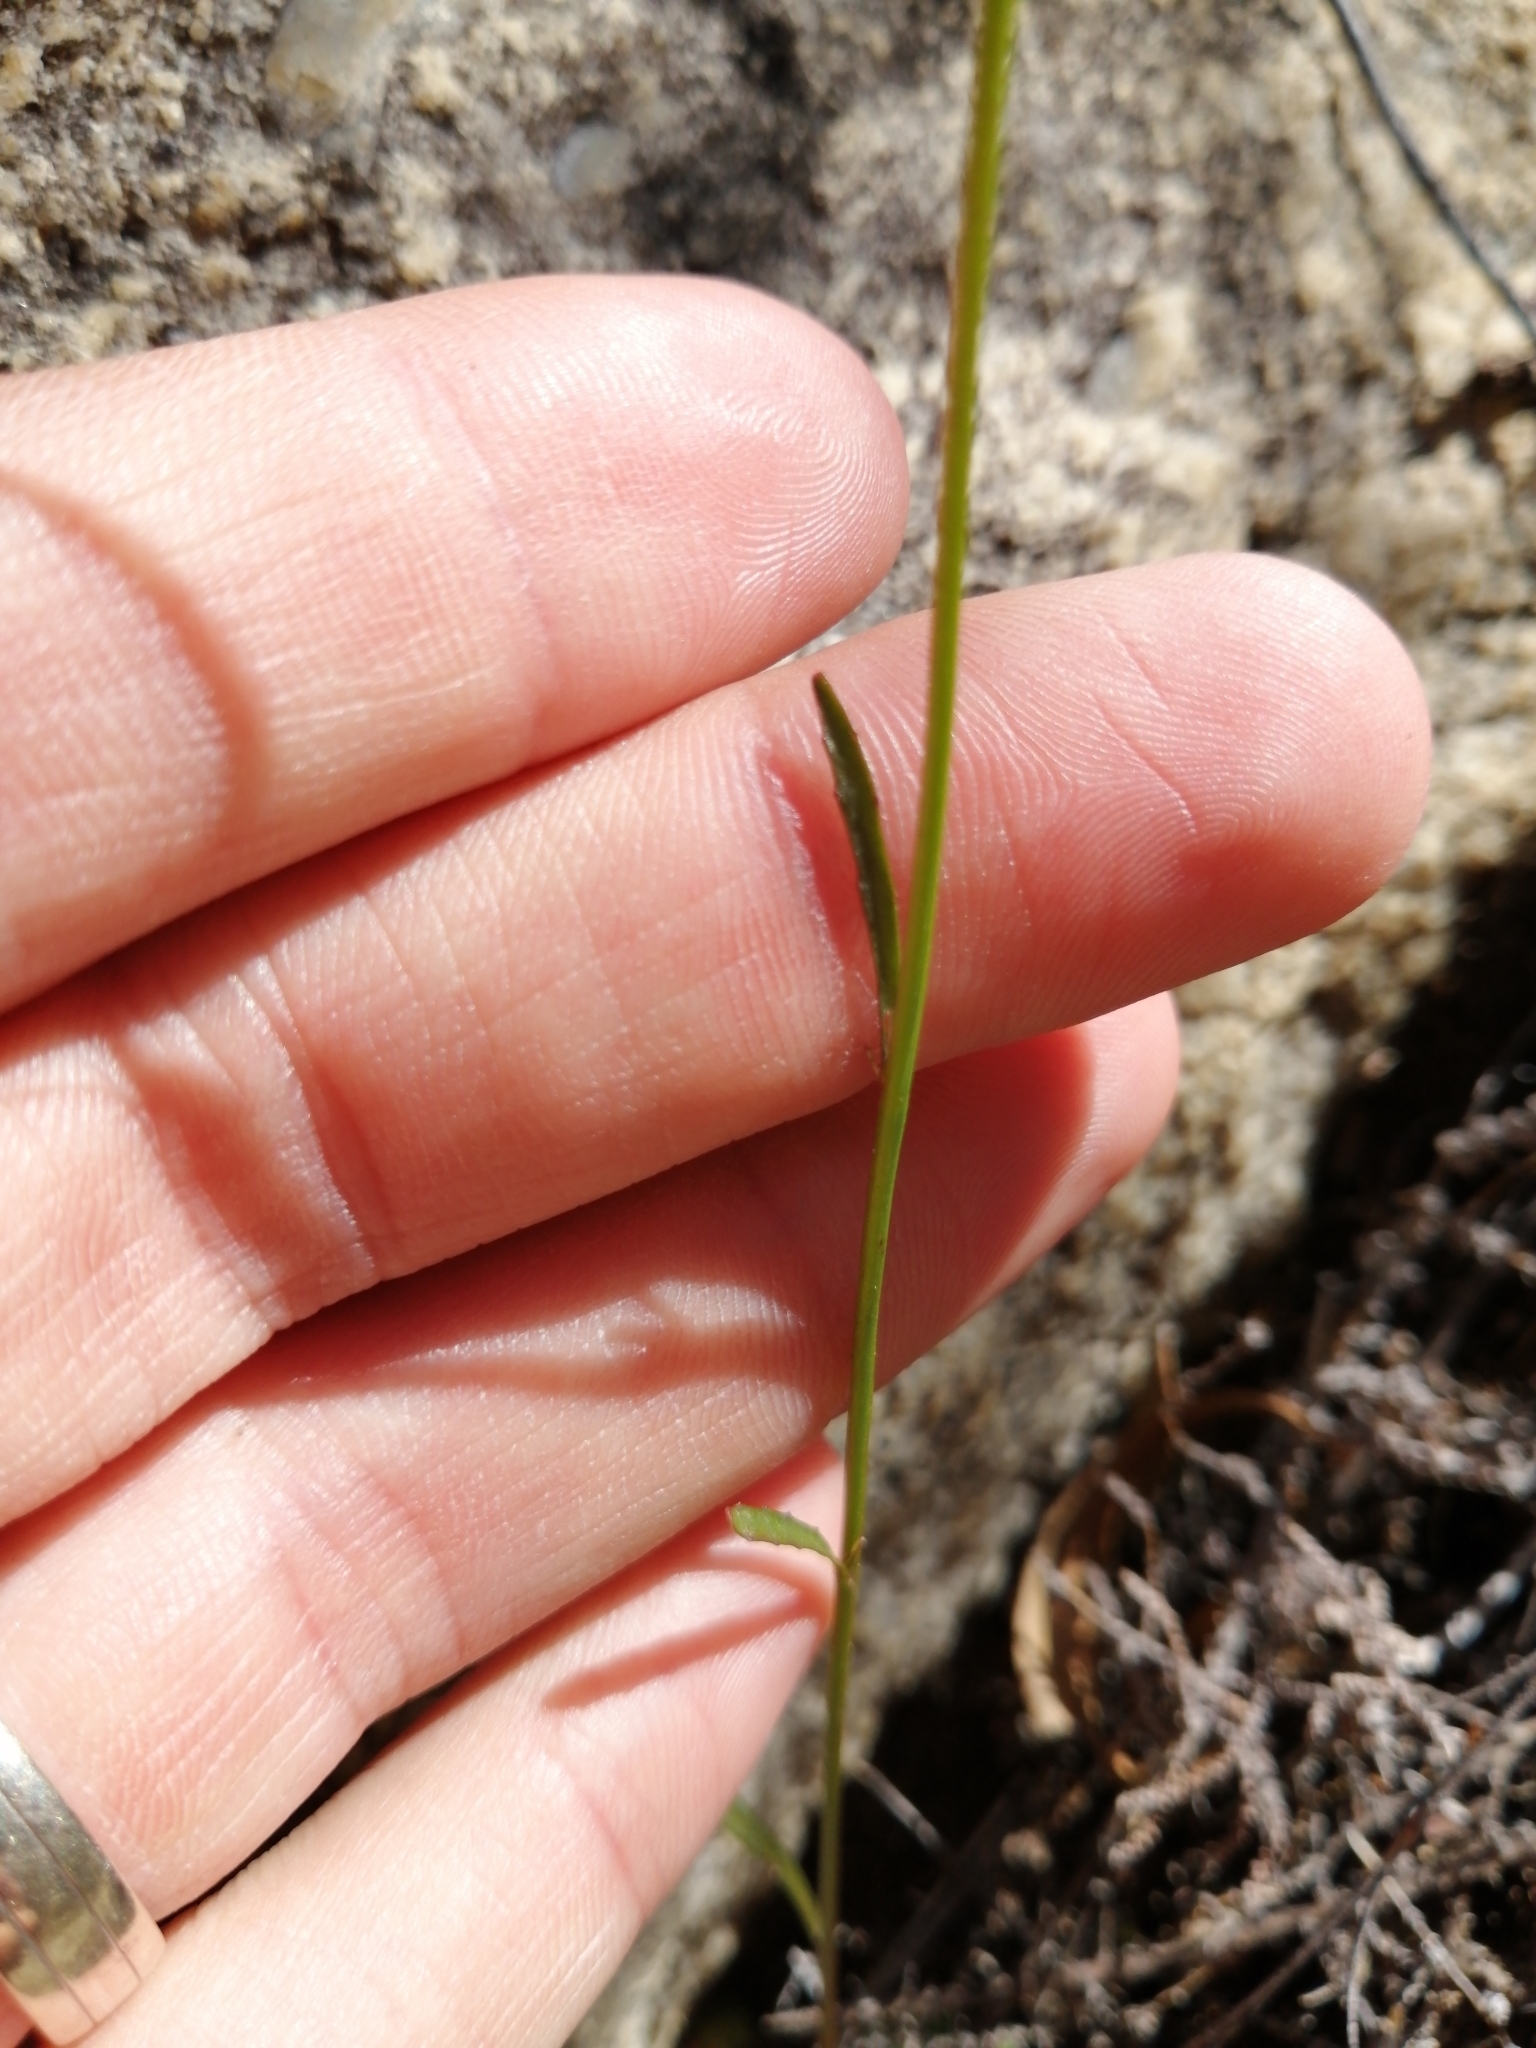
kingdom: Plantae
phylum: Tracheophyta
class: Magnoliopsida
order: Asterales
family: Campanulaceae
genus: Wimmerella
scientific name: Wimmerella arabidea
